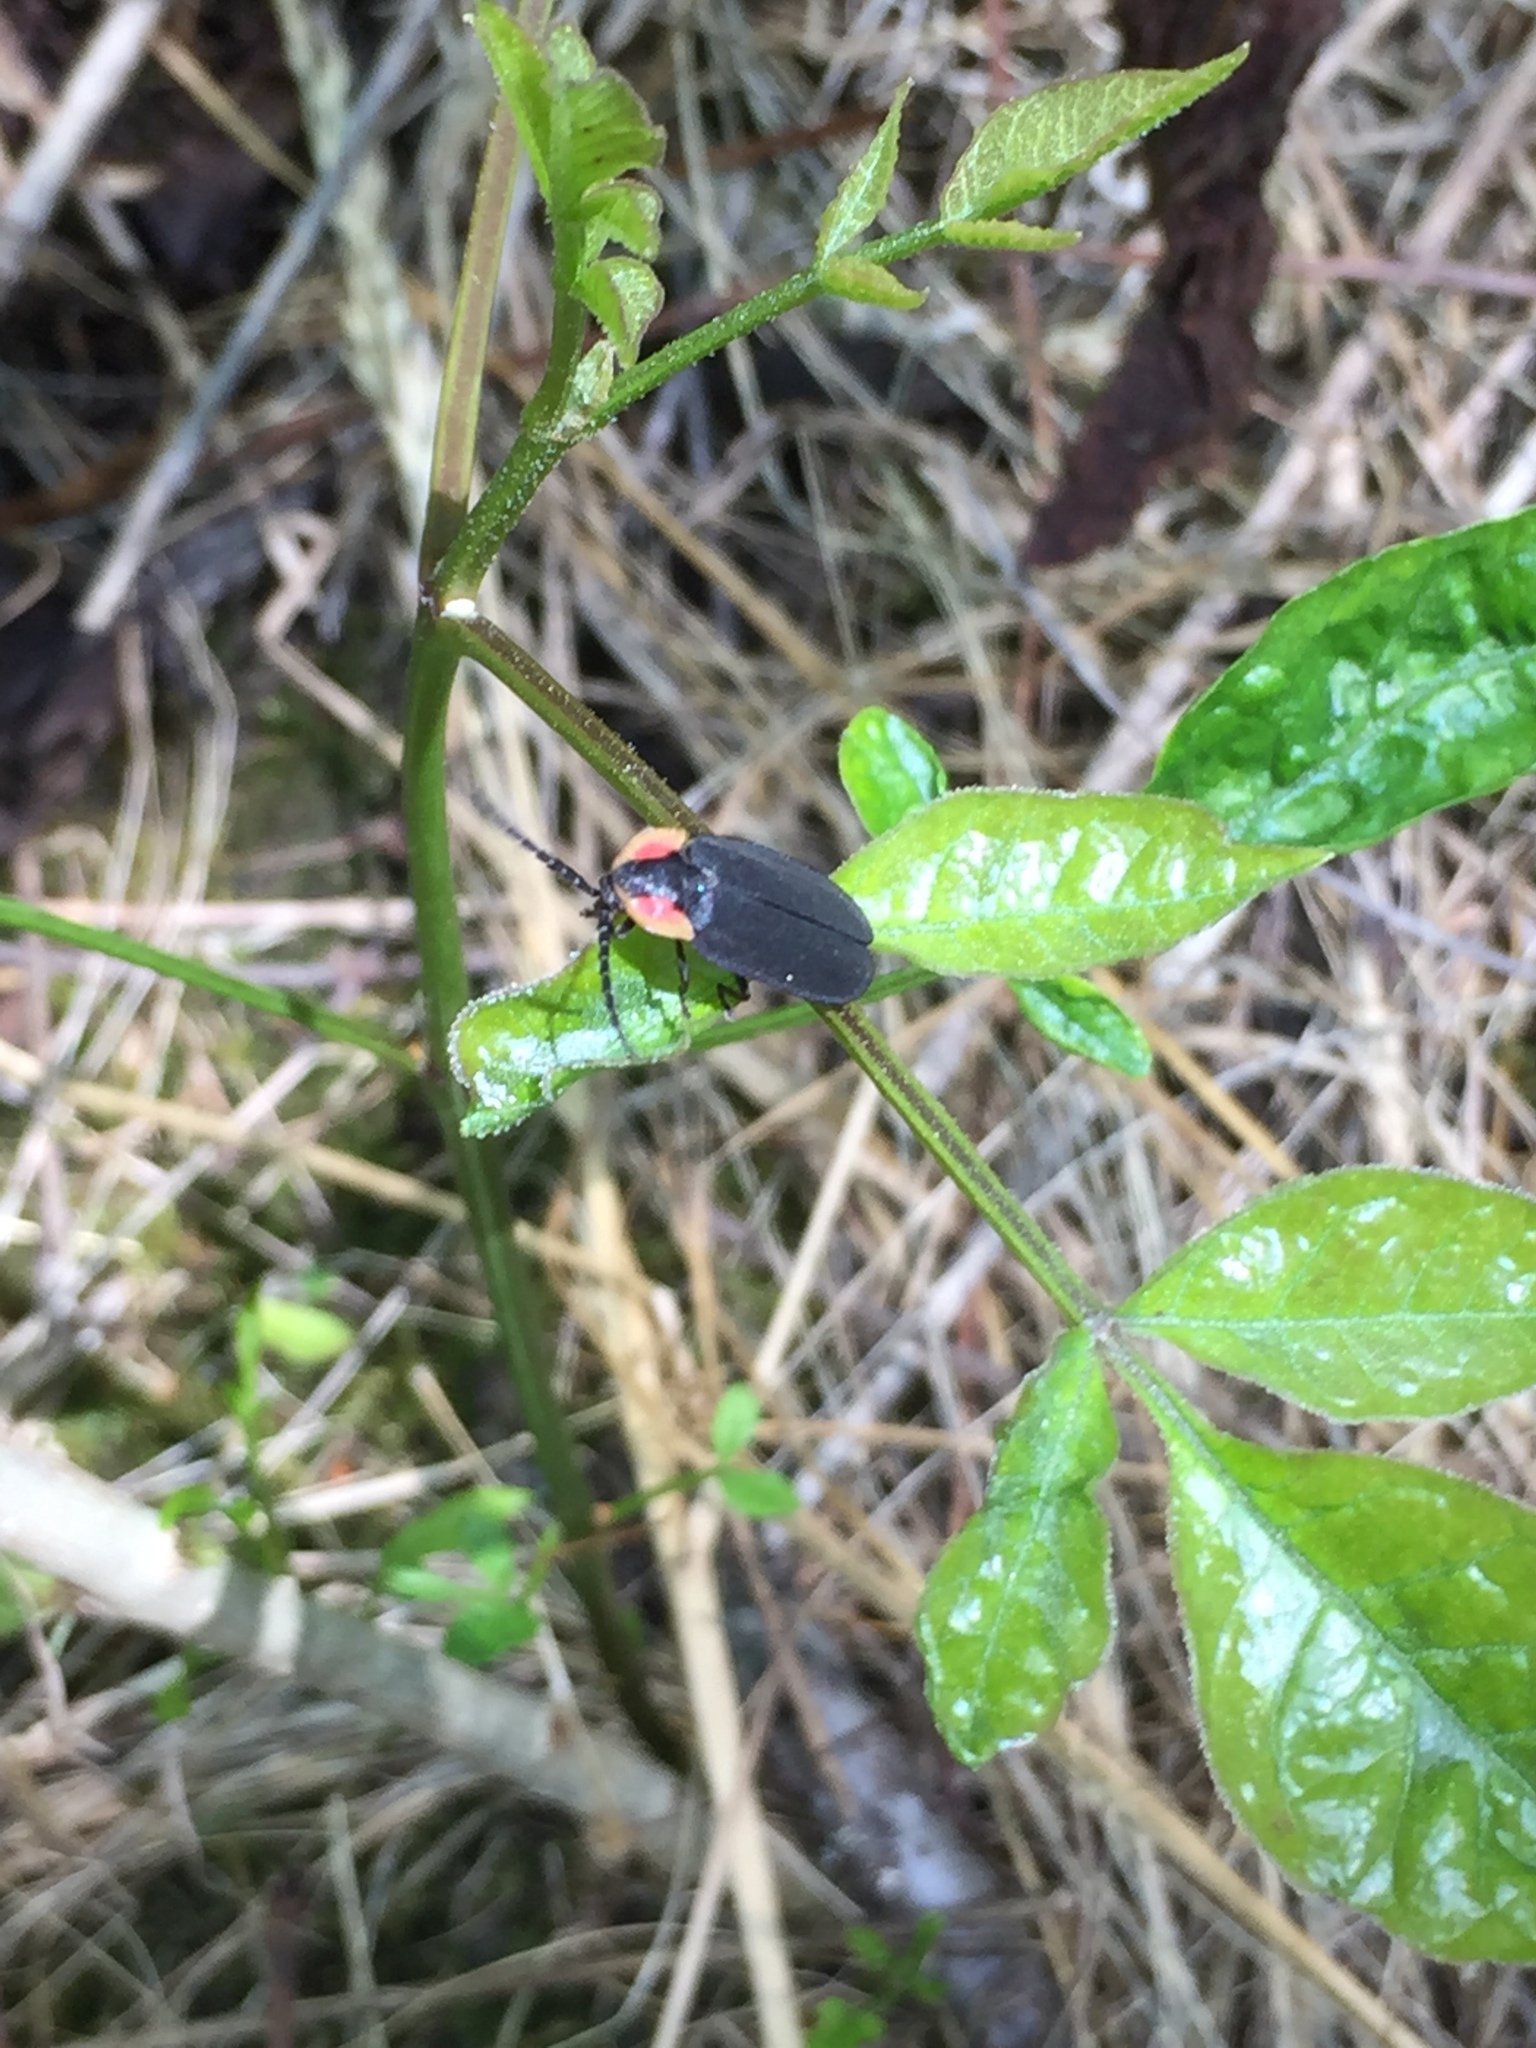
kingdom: Animalia
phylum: Arthropoda
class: Insecta
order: Coleoptera
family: Lampyridae
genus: Lucidota
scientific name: Lucidota atra
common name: Black firefly
